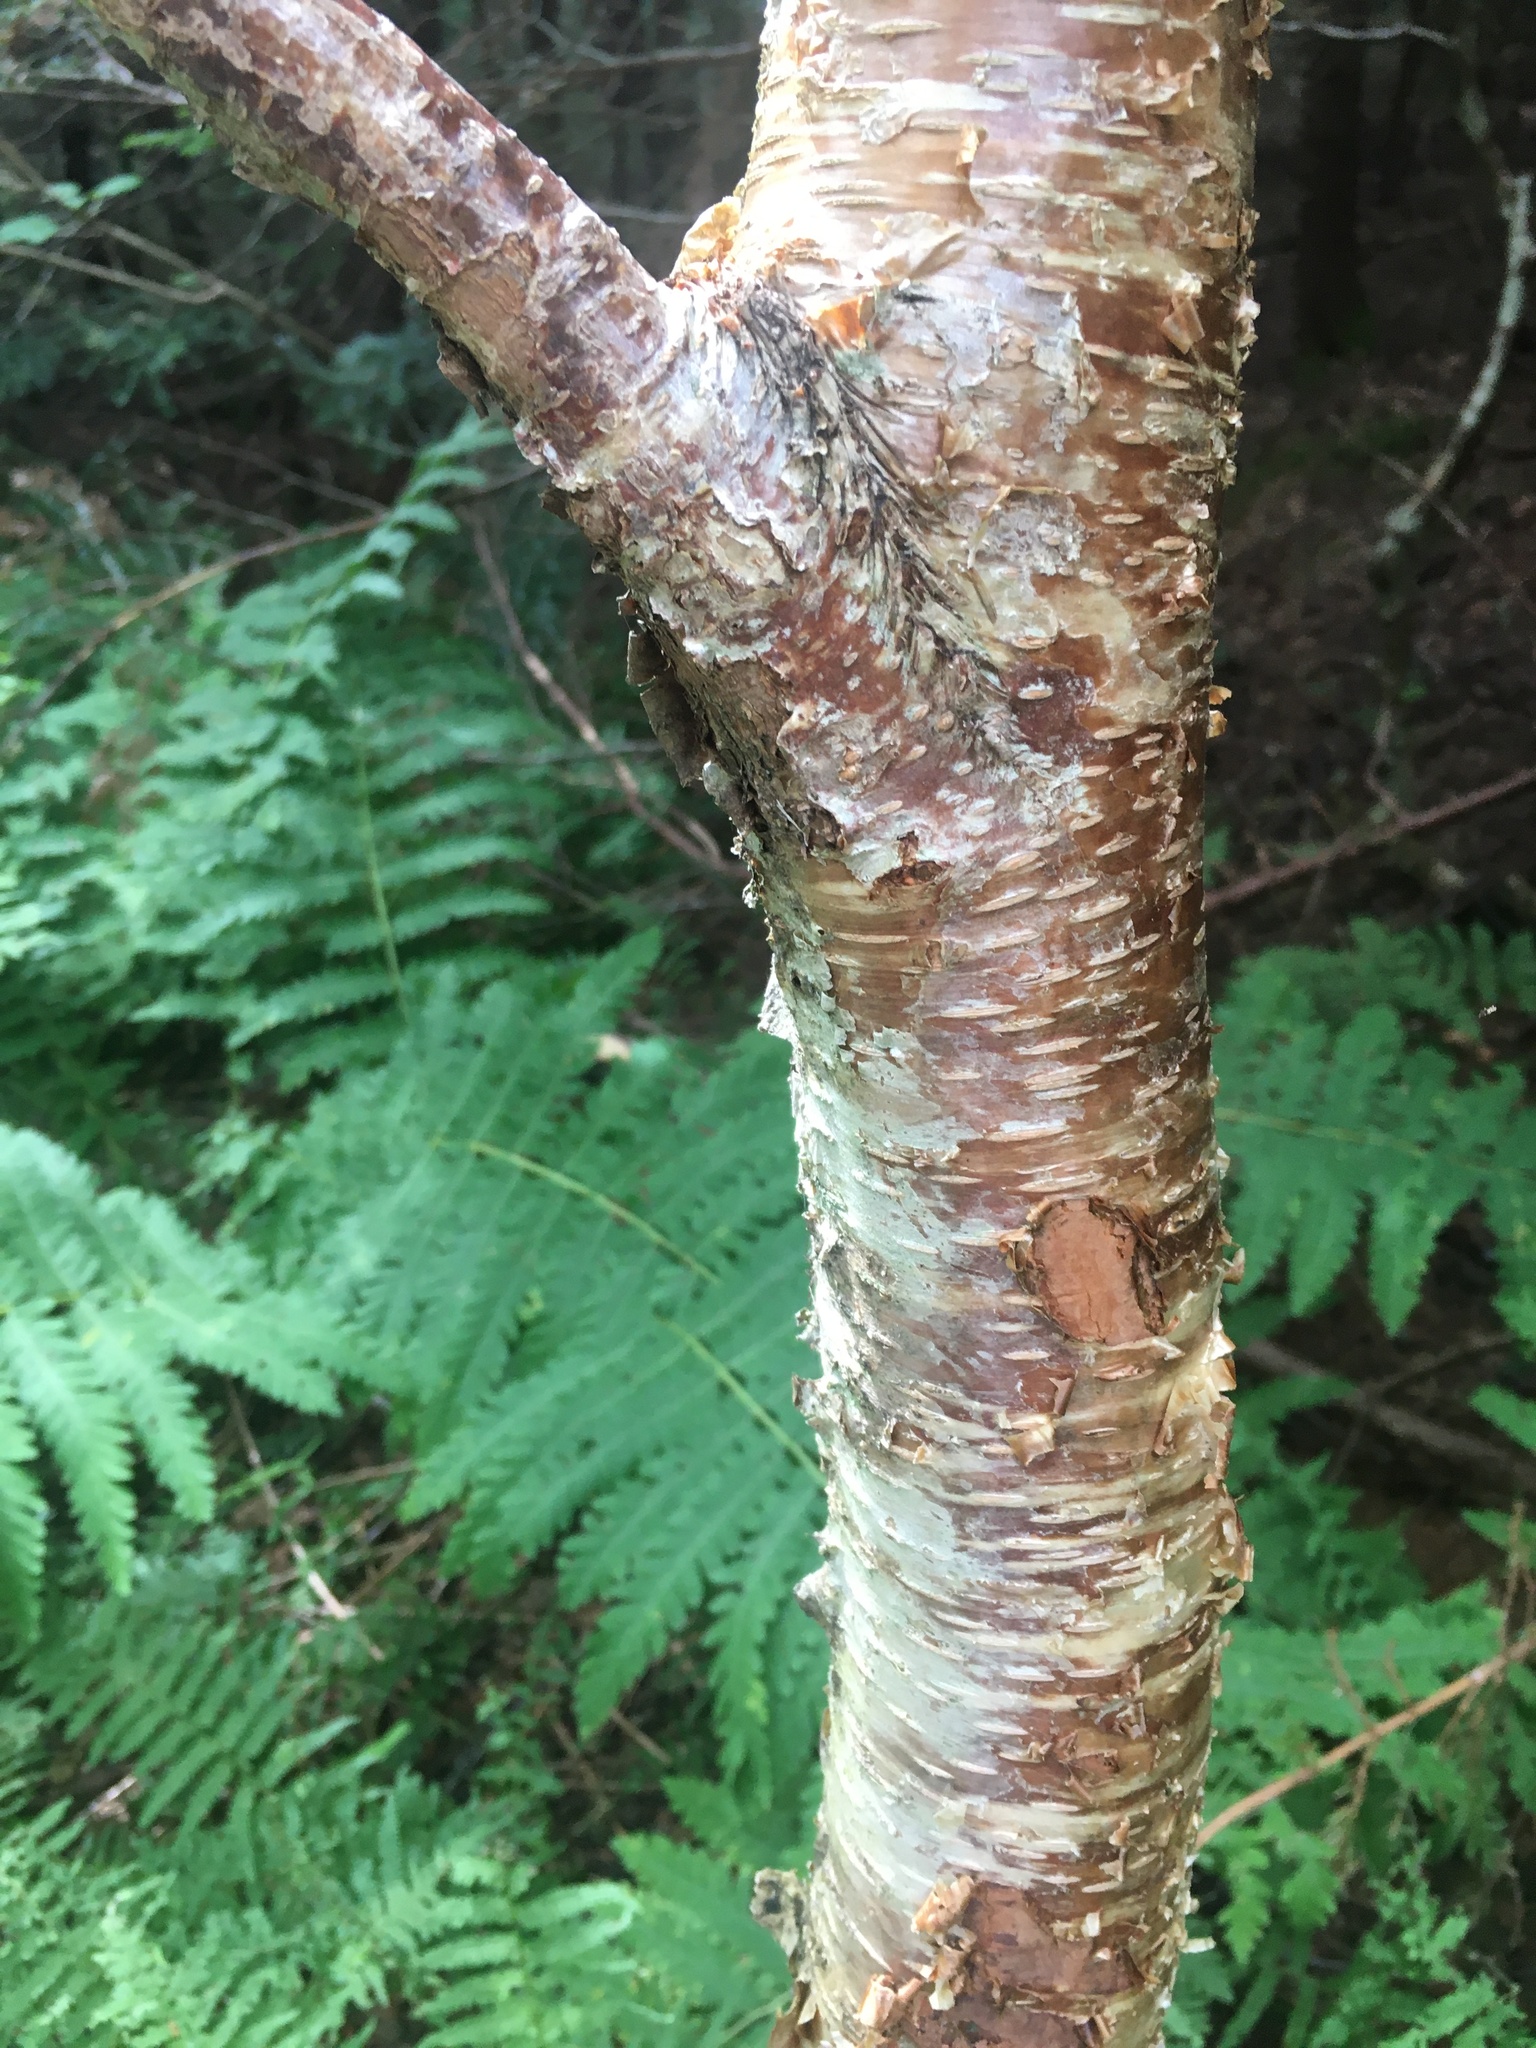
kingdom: Plantae
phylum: Tracheophyta
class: Magnoliopsida
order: Fagales
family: Betulaceae
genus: Betula
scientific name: Betula alleghaniensis
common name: Yellow birch
